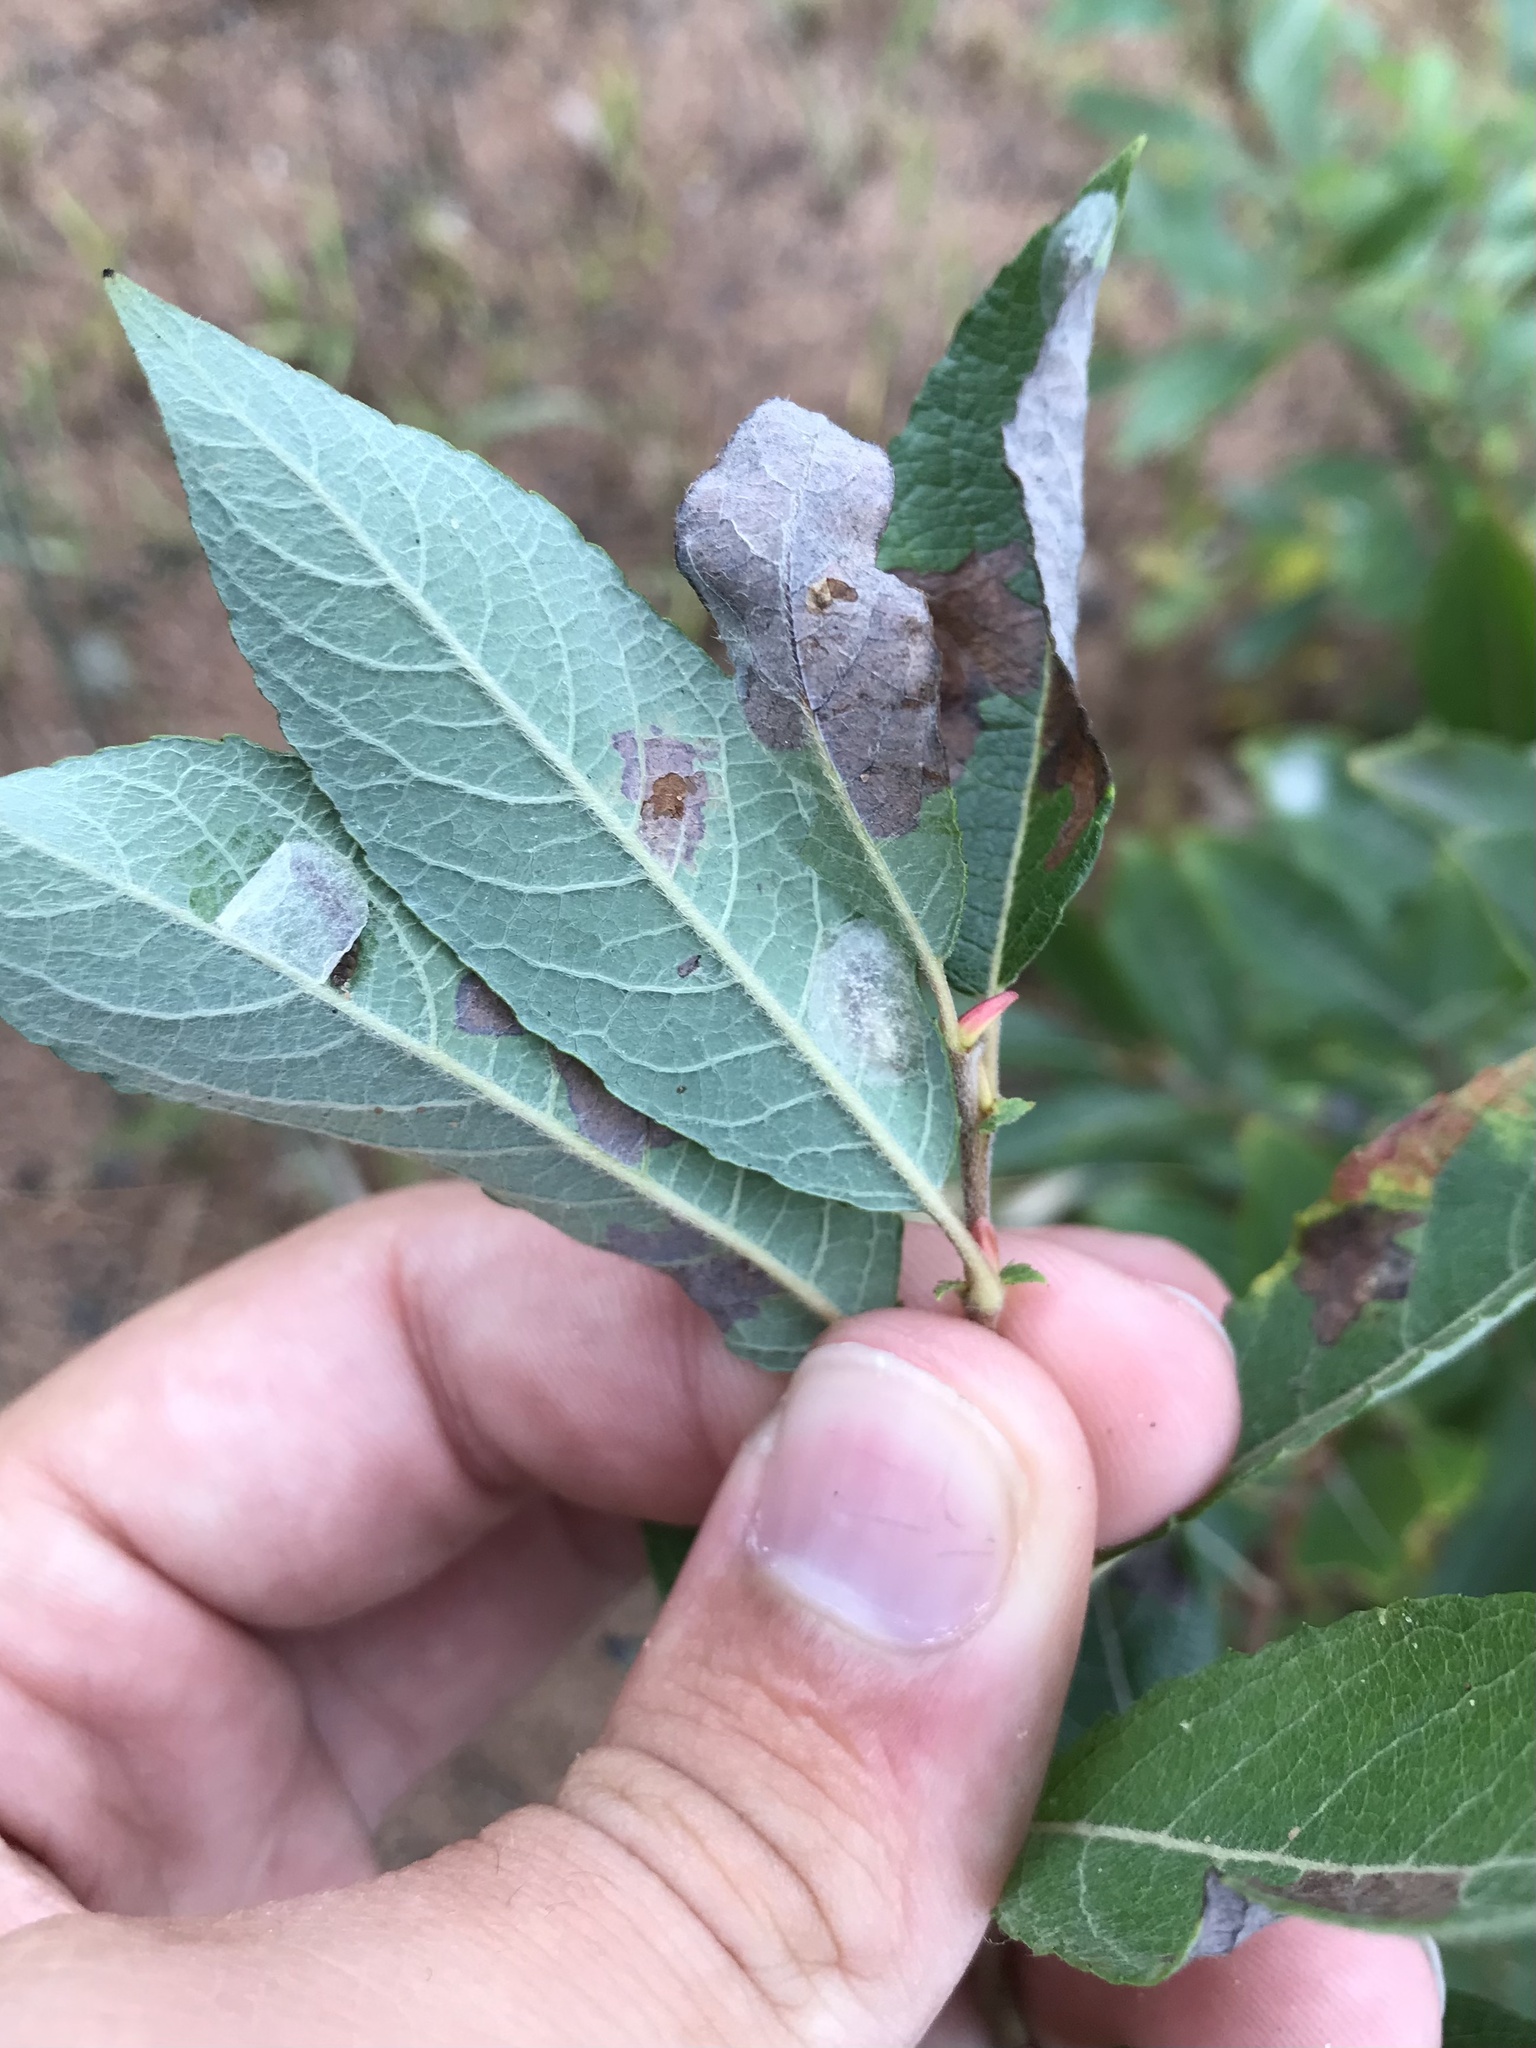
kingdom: Animalia
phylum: Arthropoda
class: Insecta
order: Lepidoptera
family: Gracillariidae
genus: Micrurapteryx
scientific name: Micrurapteryx salicifoliella
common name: Willow leaf blotch miner moth
